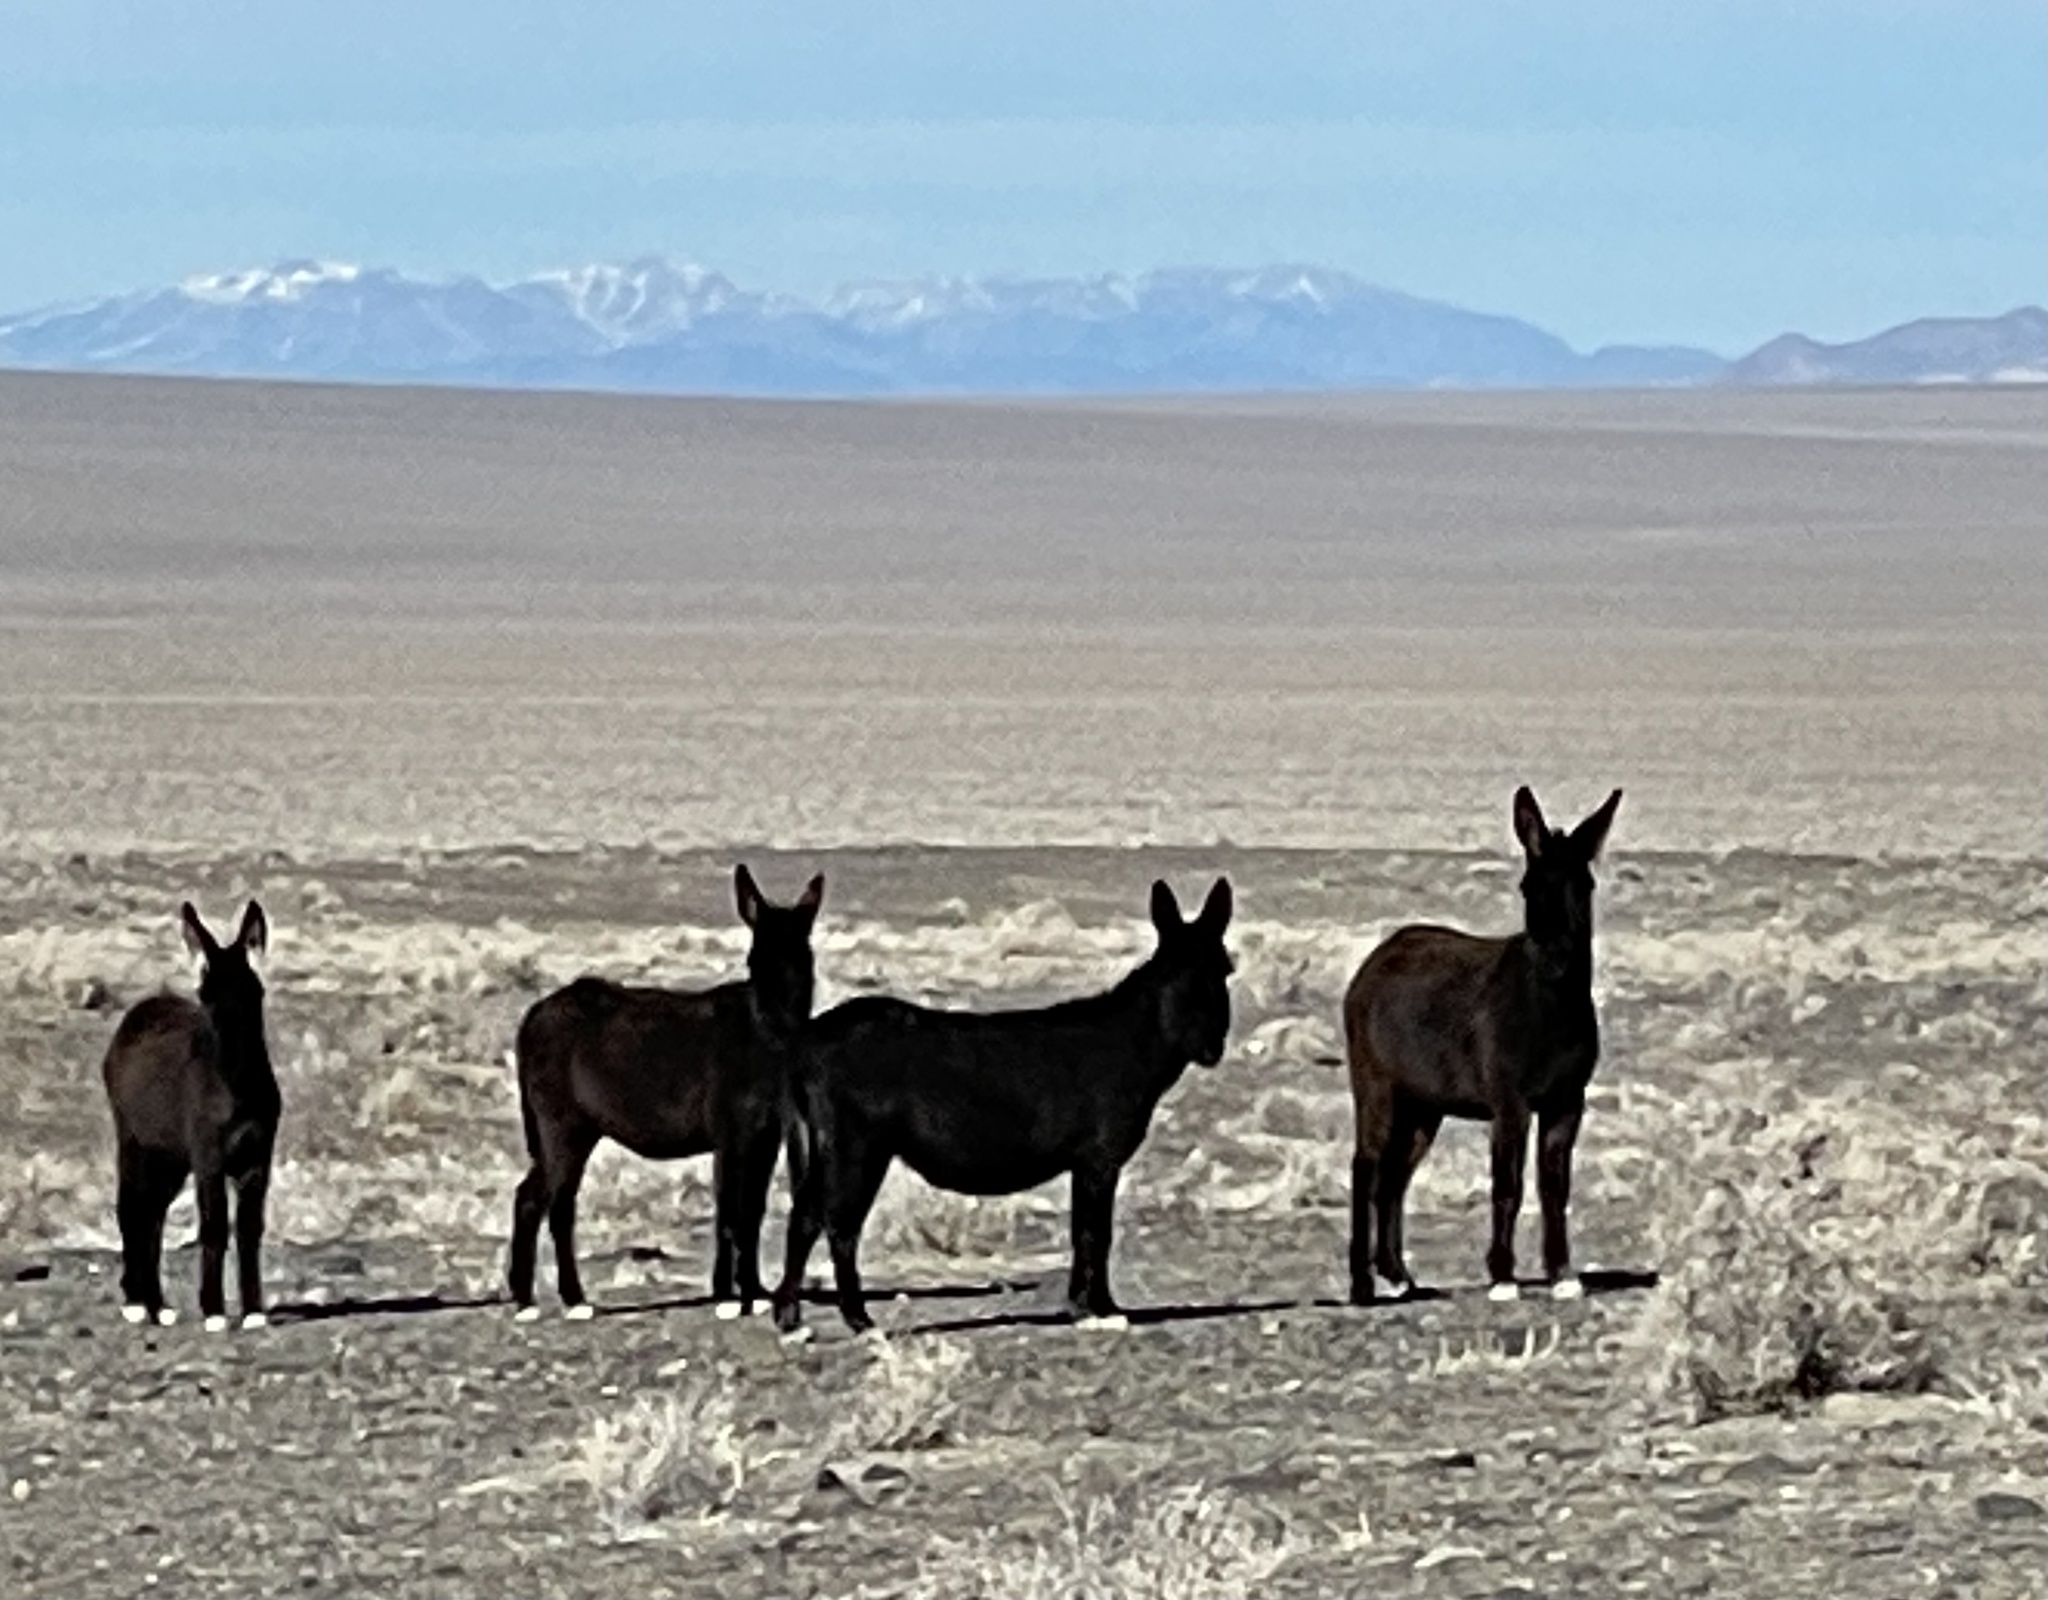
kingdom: Animalia
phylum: Chordata
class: Mammalia
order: Perissodactyla
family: Equidae
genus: Equus
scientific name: Equus asinus
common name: Ass
